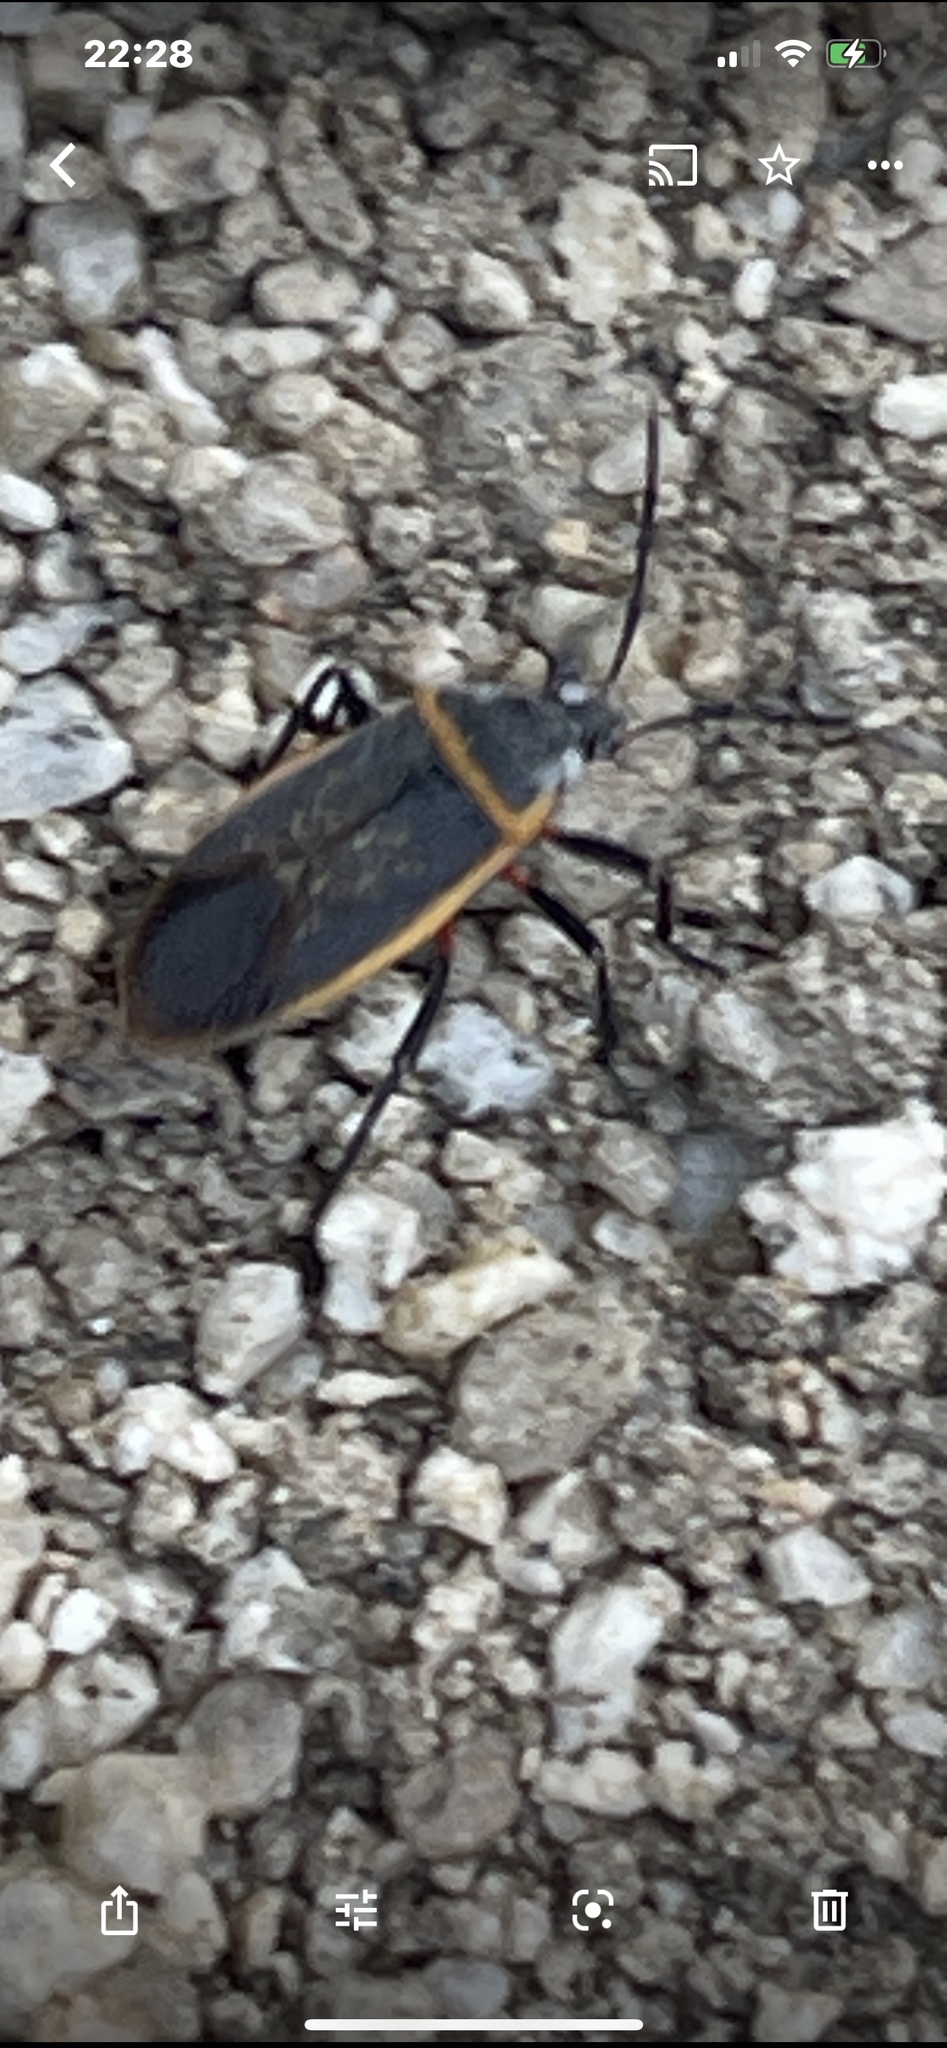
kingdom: Animalia
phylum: Arthropoda
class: Insecta
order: Hemiptera
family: Largidae
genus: Largus
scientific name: Largus californicus
